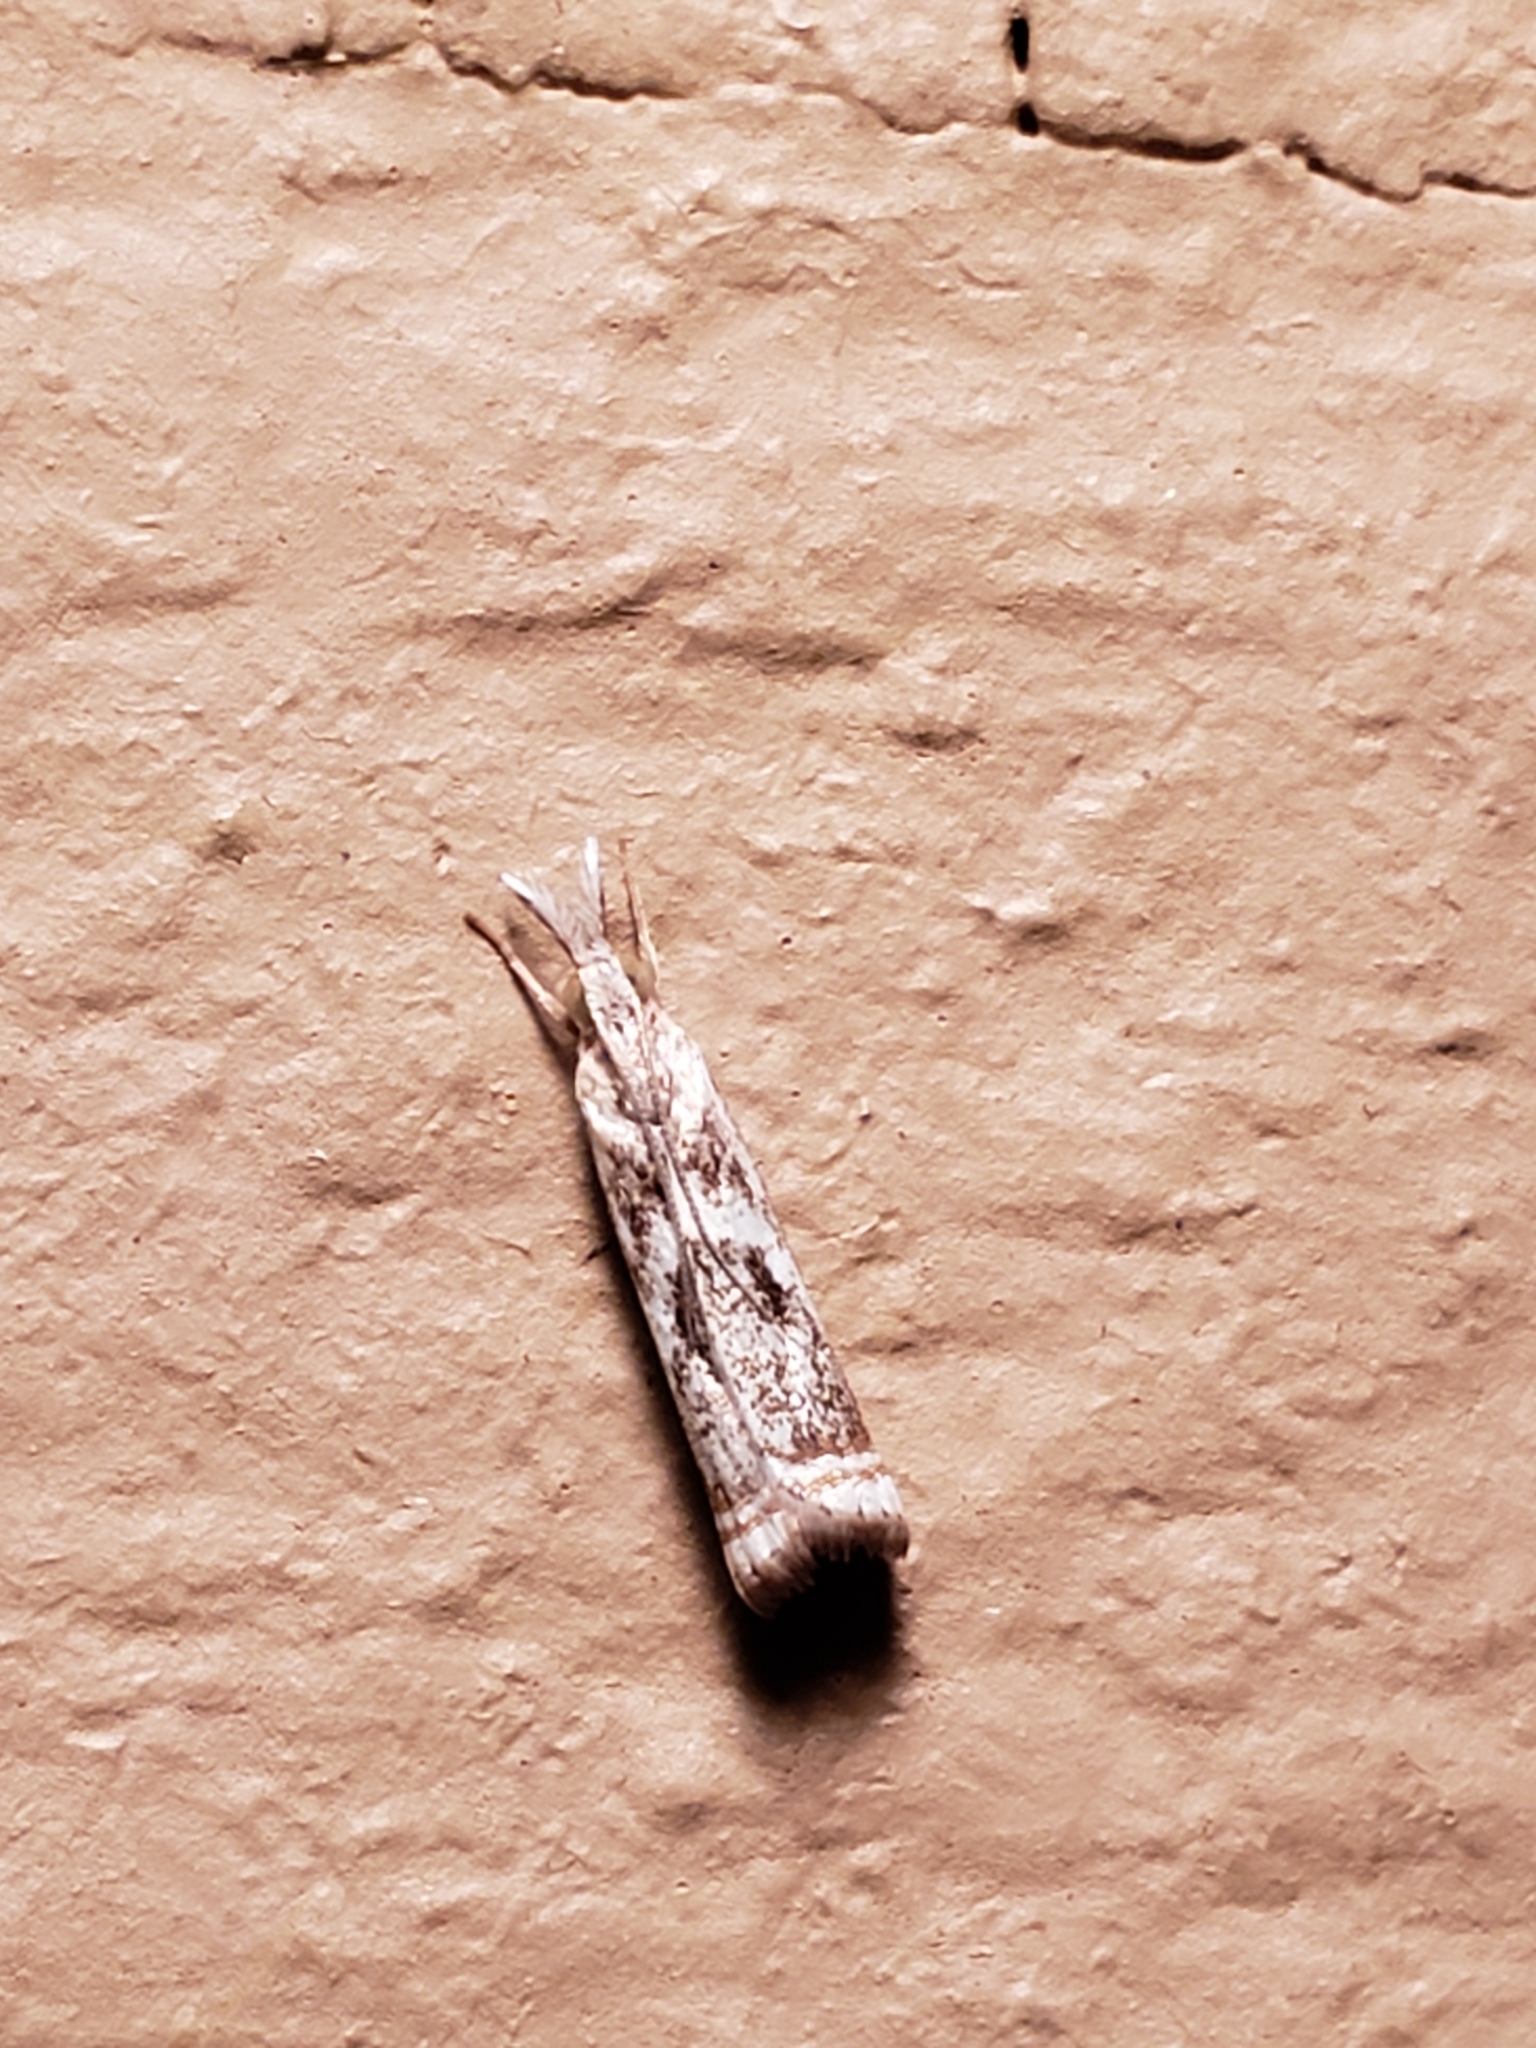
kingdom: Animalia
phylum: Arthropoda
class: Insecta
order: Lepidoptera
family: Crambidae
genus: Microcrambus
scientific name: Microcrambus elegans
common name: Elegant grass-veneer
